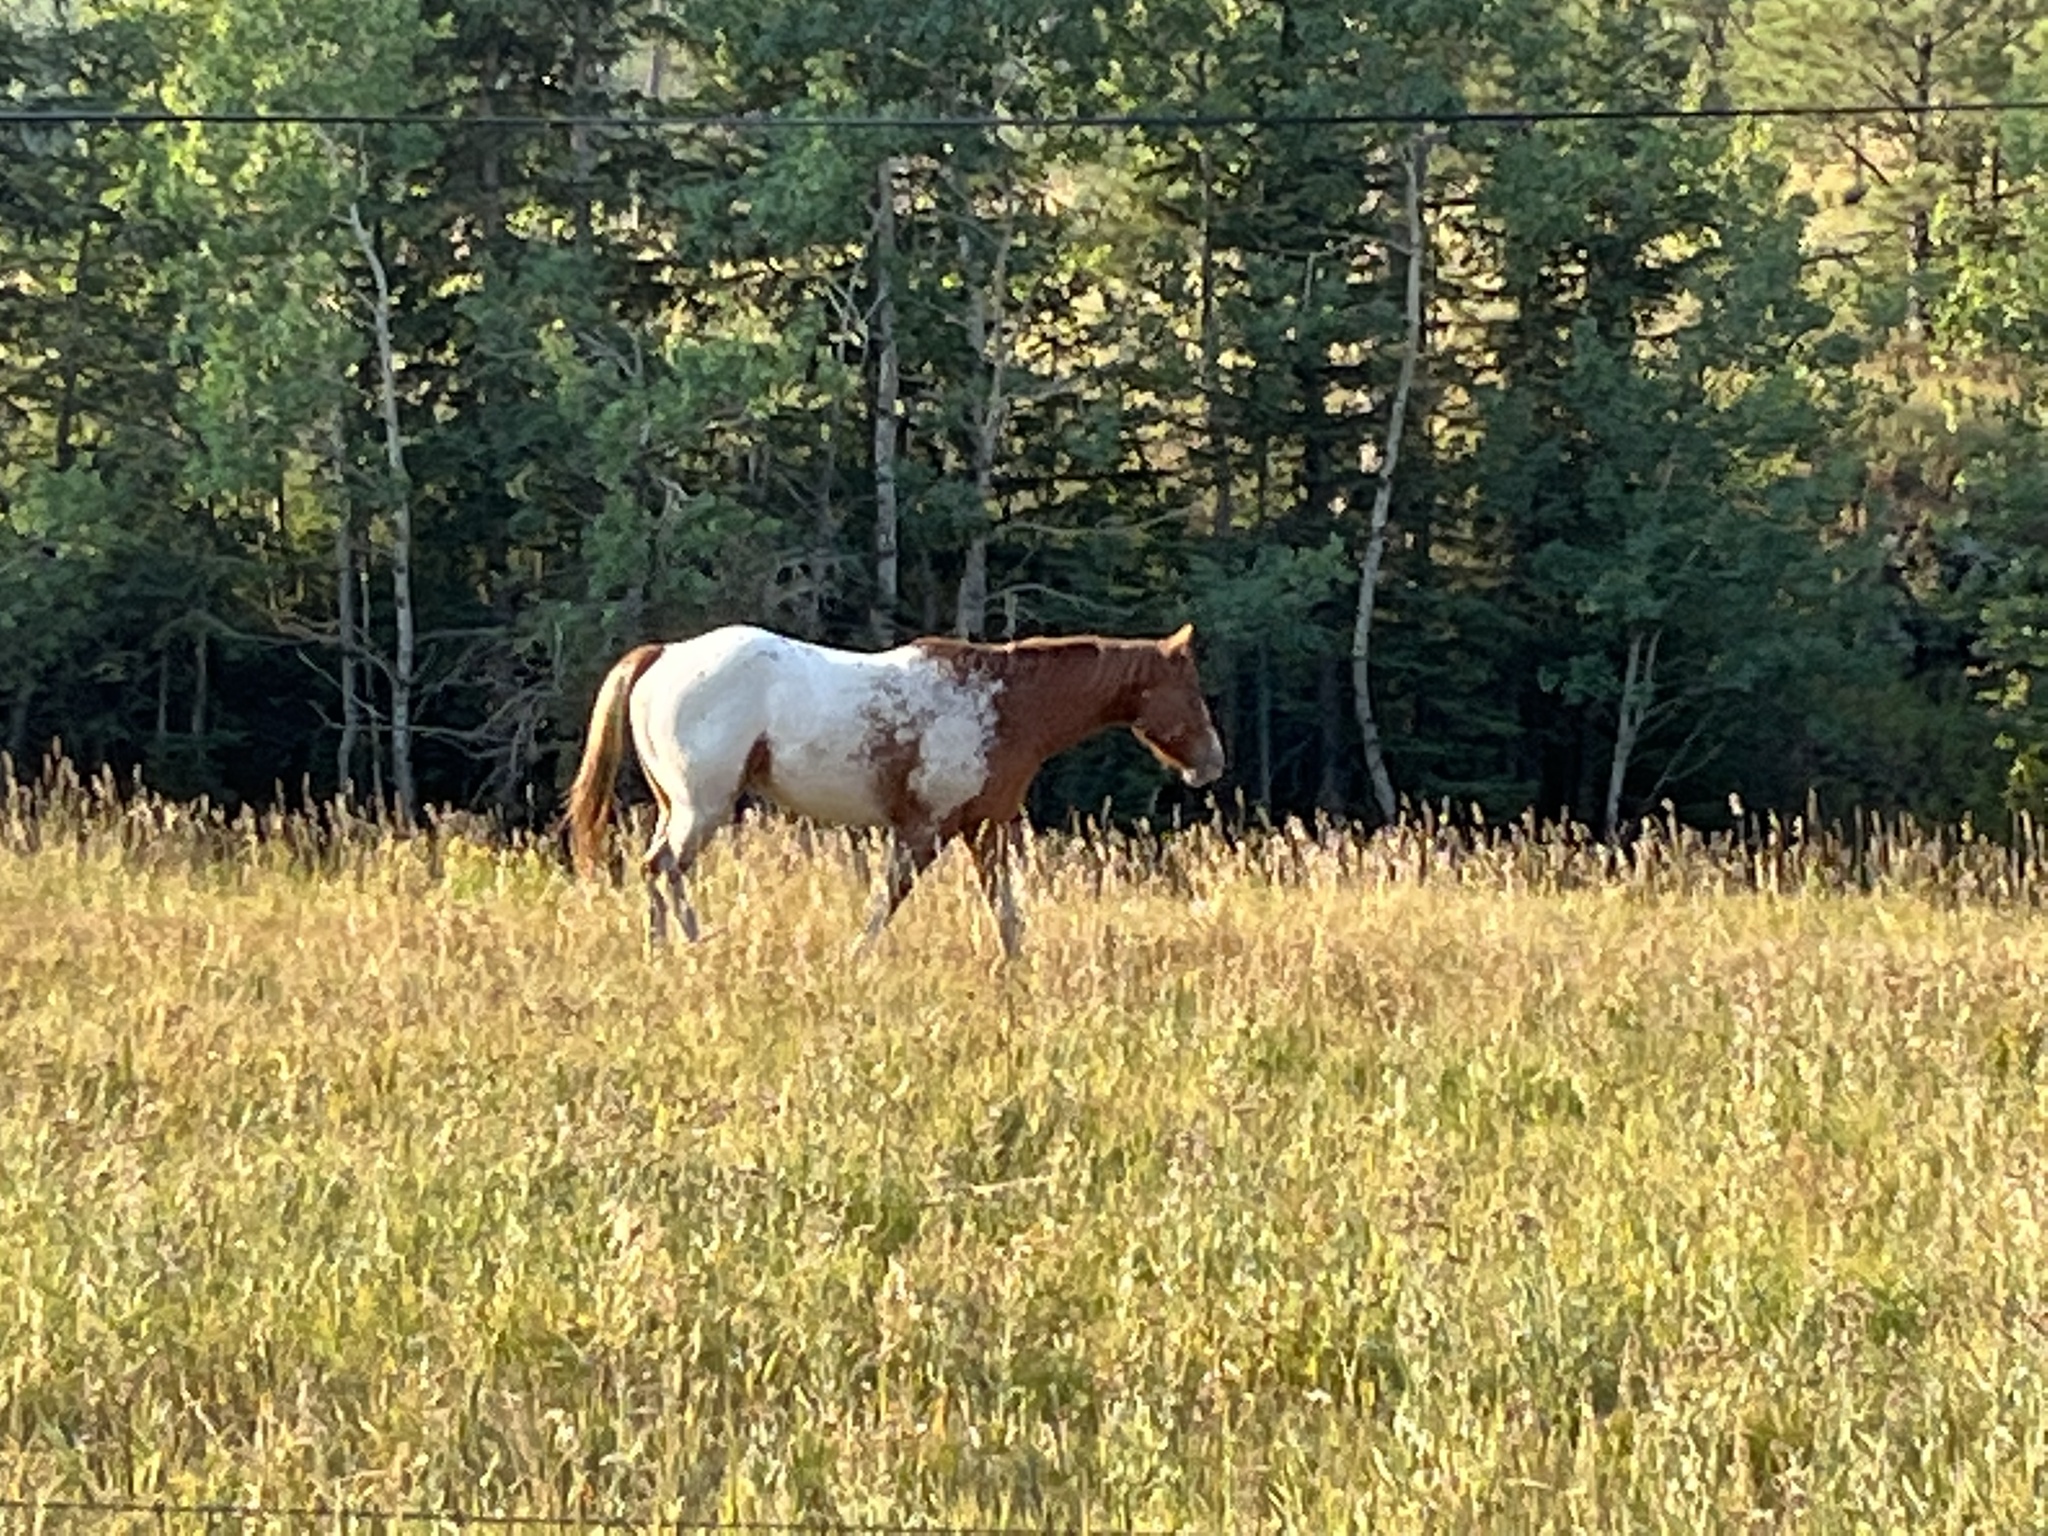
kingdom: Animalia
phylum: Chordata
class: Mammalia
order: Perissodactyla
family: Equidae
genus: Equus
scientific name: Equus caballus
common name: Horse
